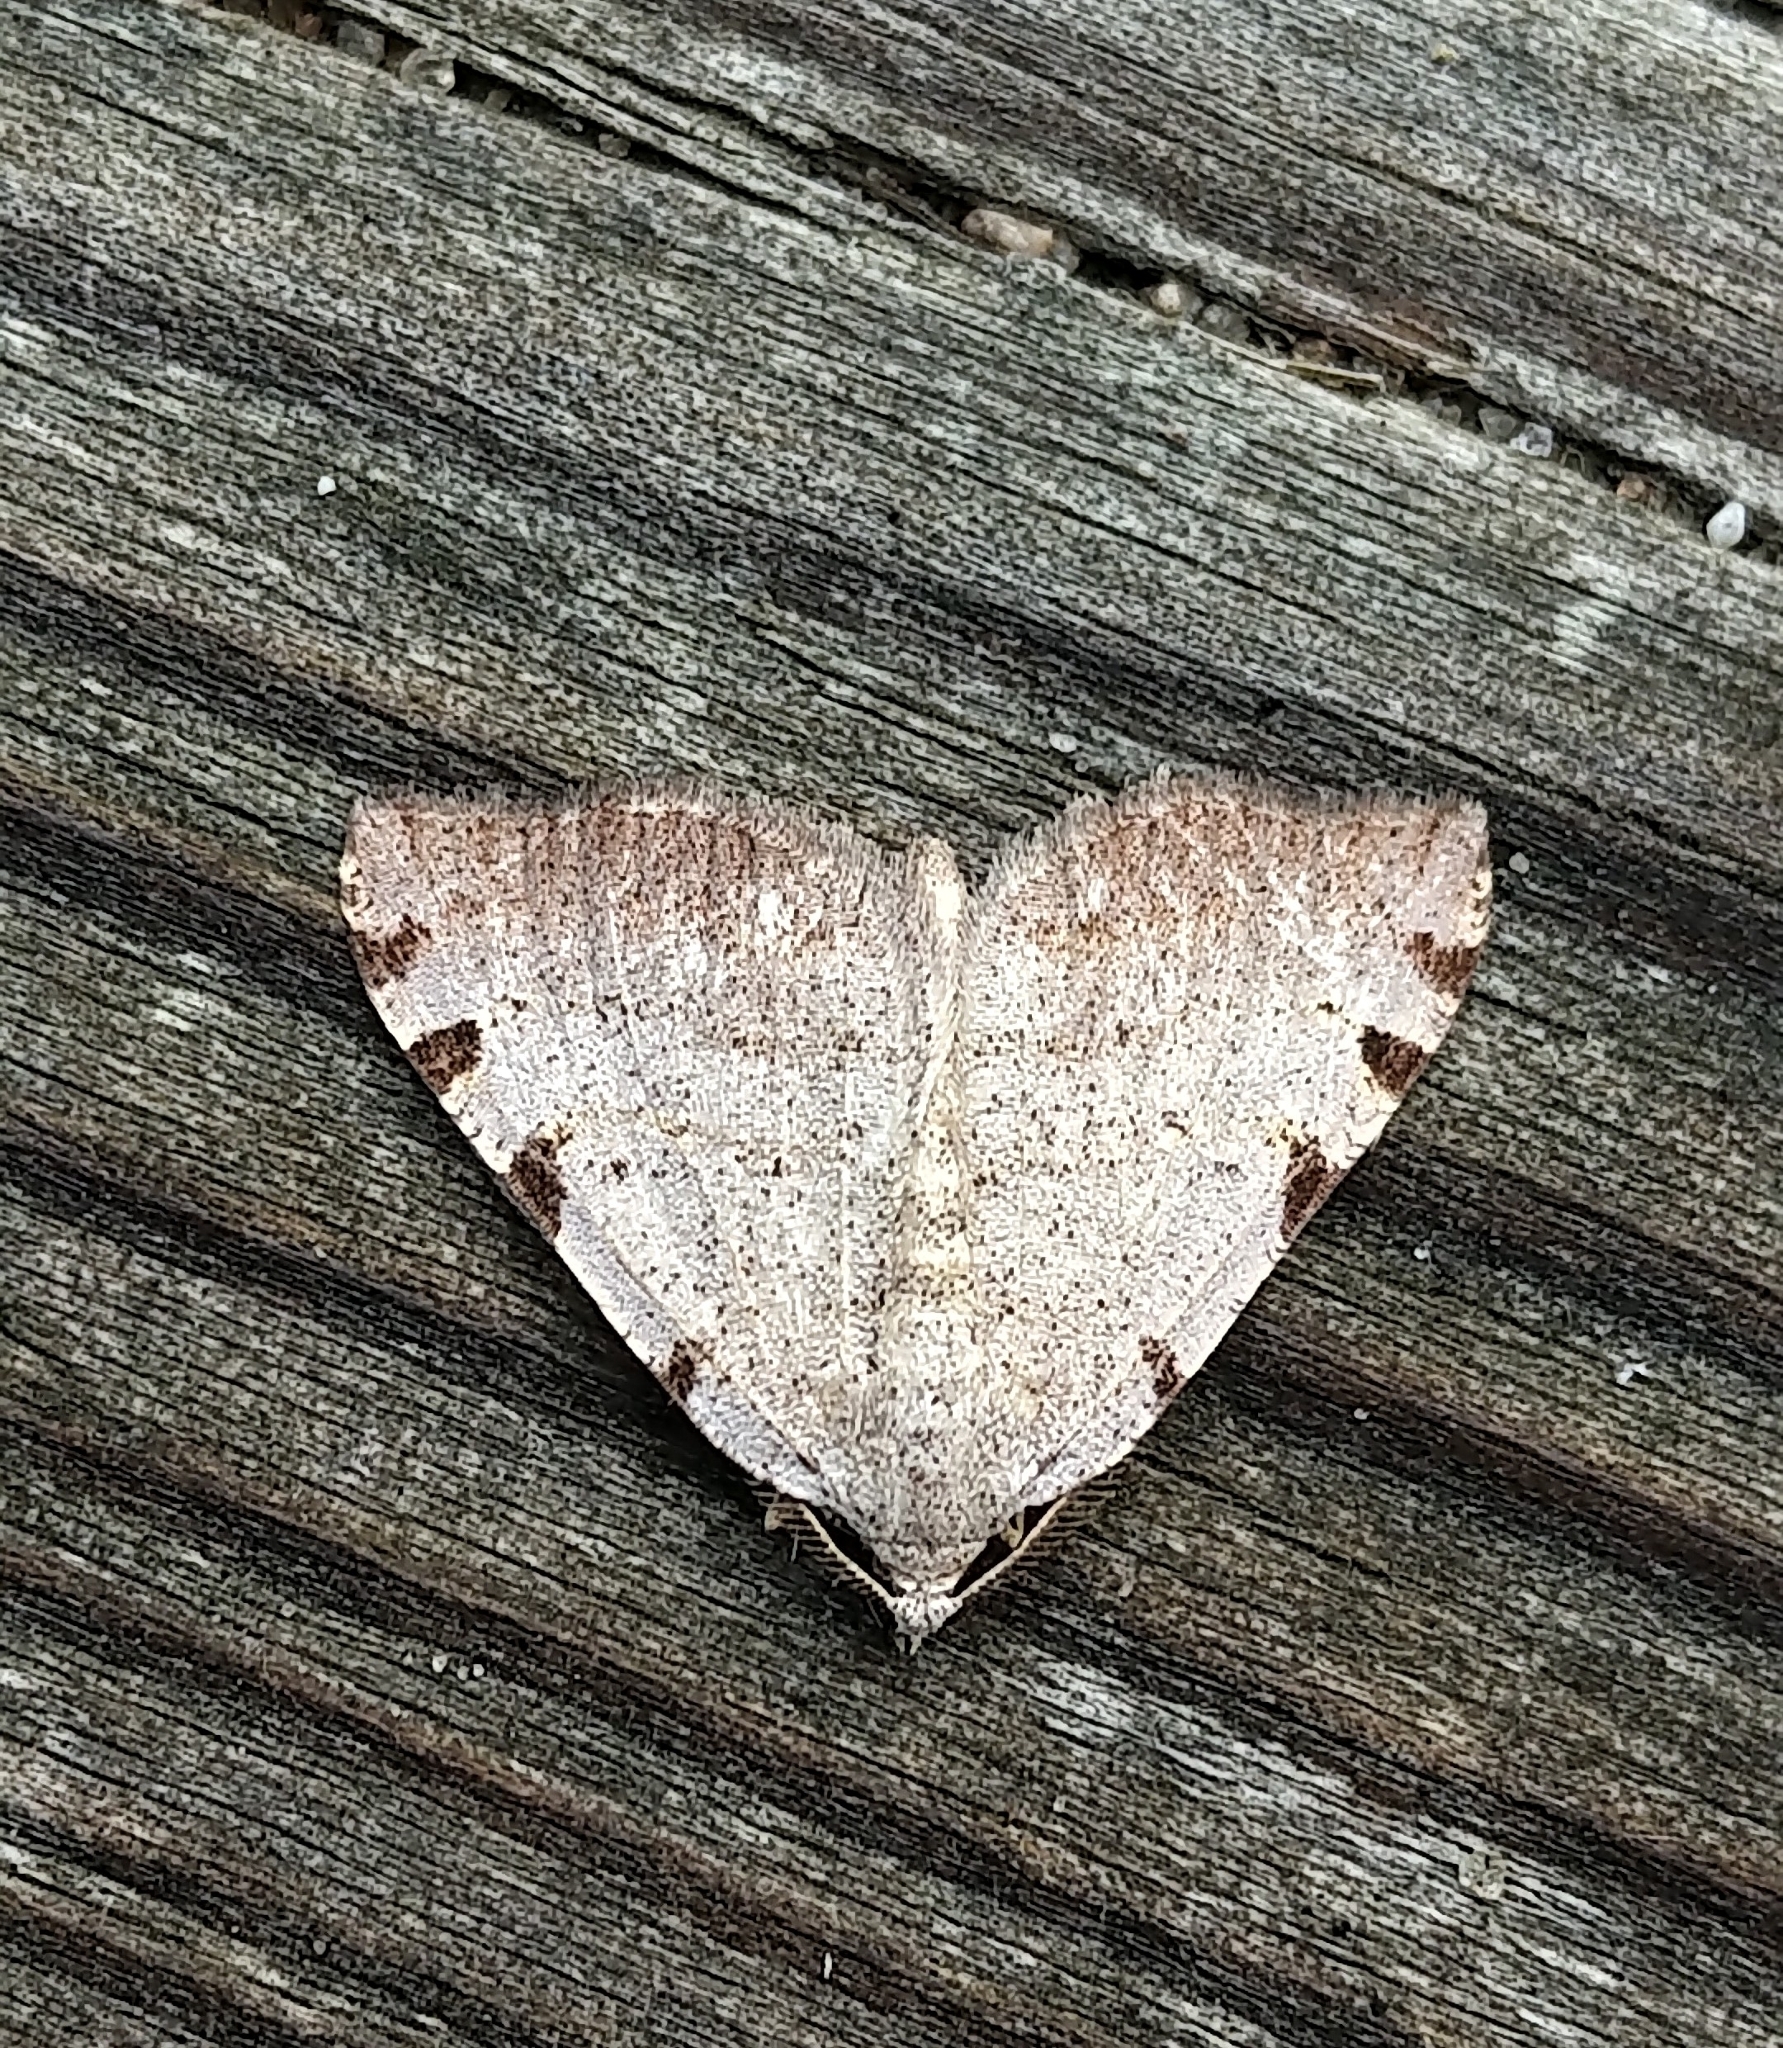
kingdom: Animalia
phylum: Arthropoda
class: Insecta
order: Lepidoptera
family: Geometridae
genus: Macaria
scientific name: Macaria coortaria
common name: Four-spotted granite
